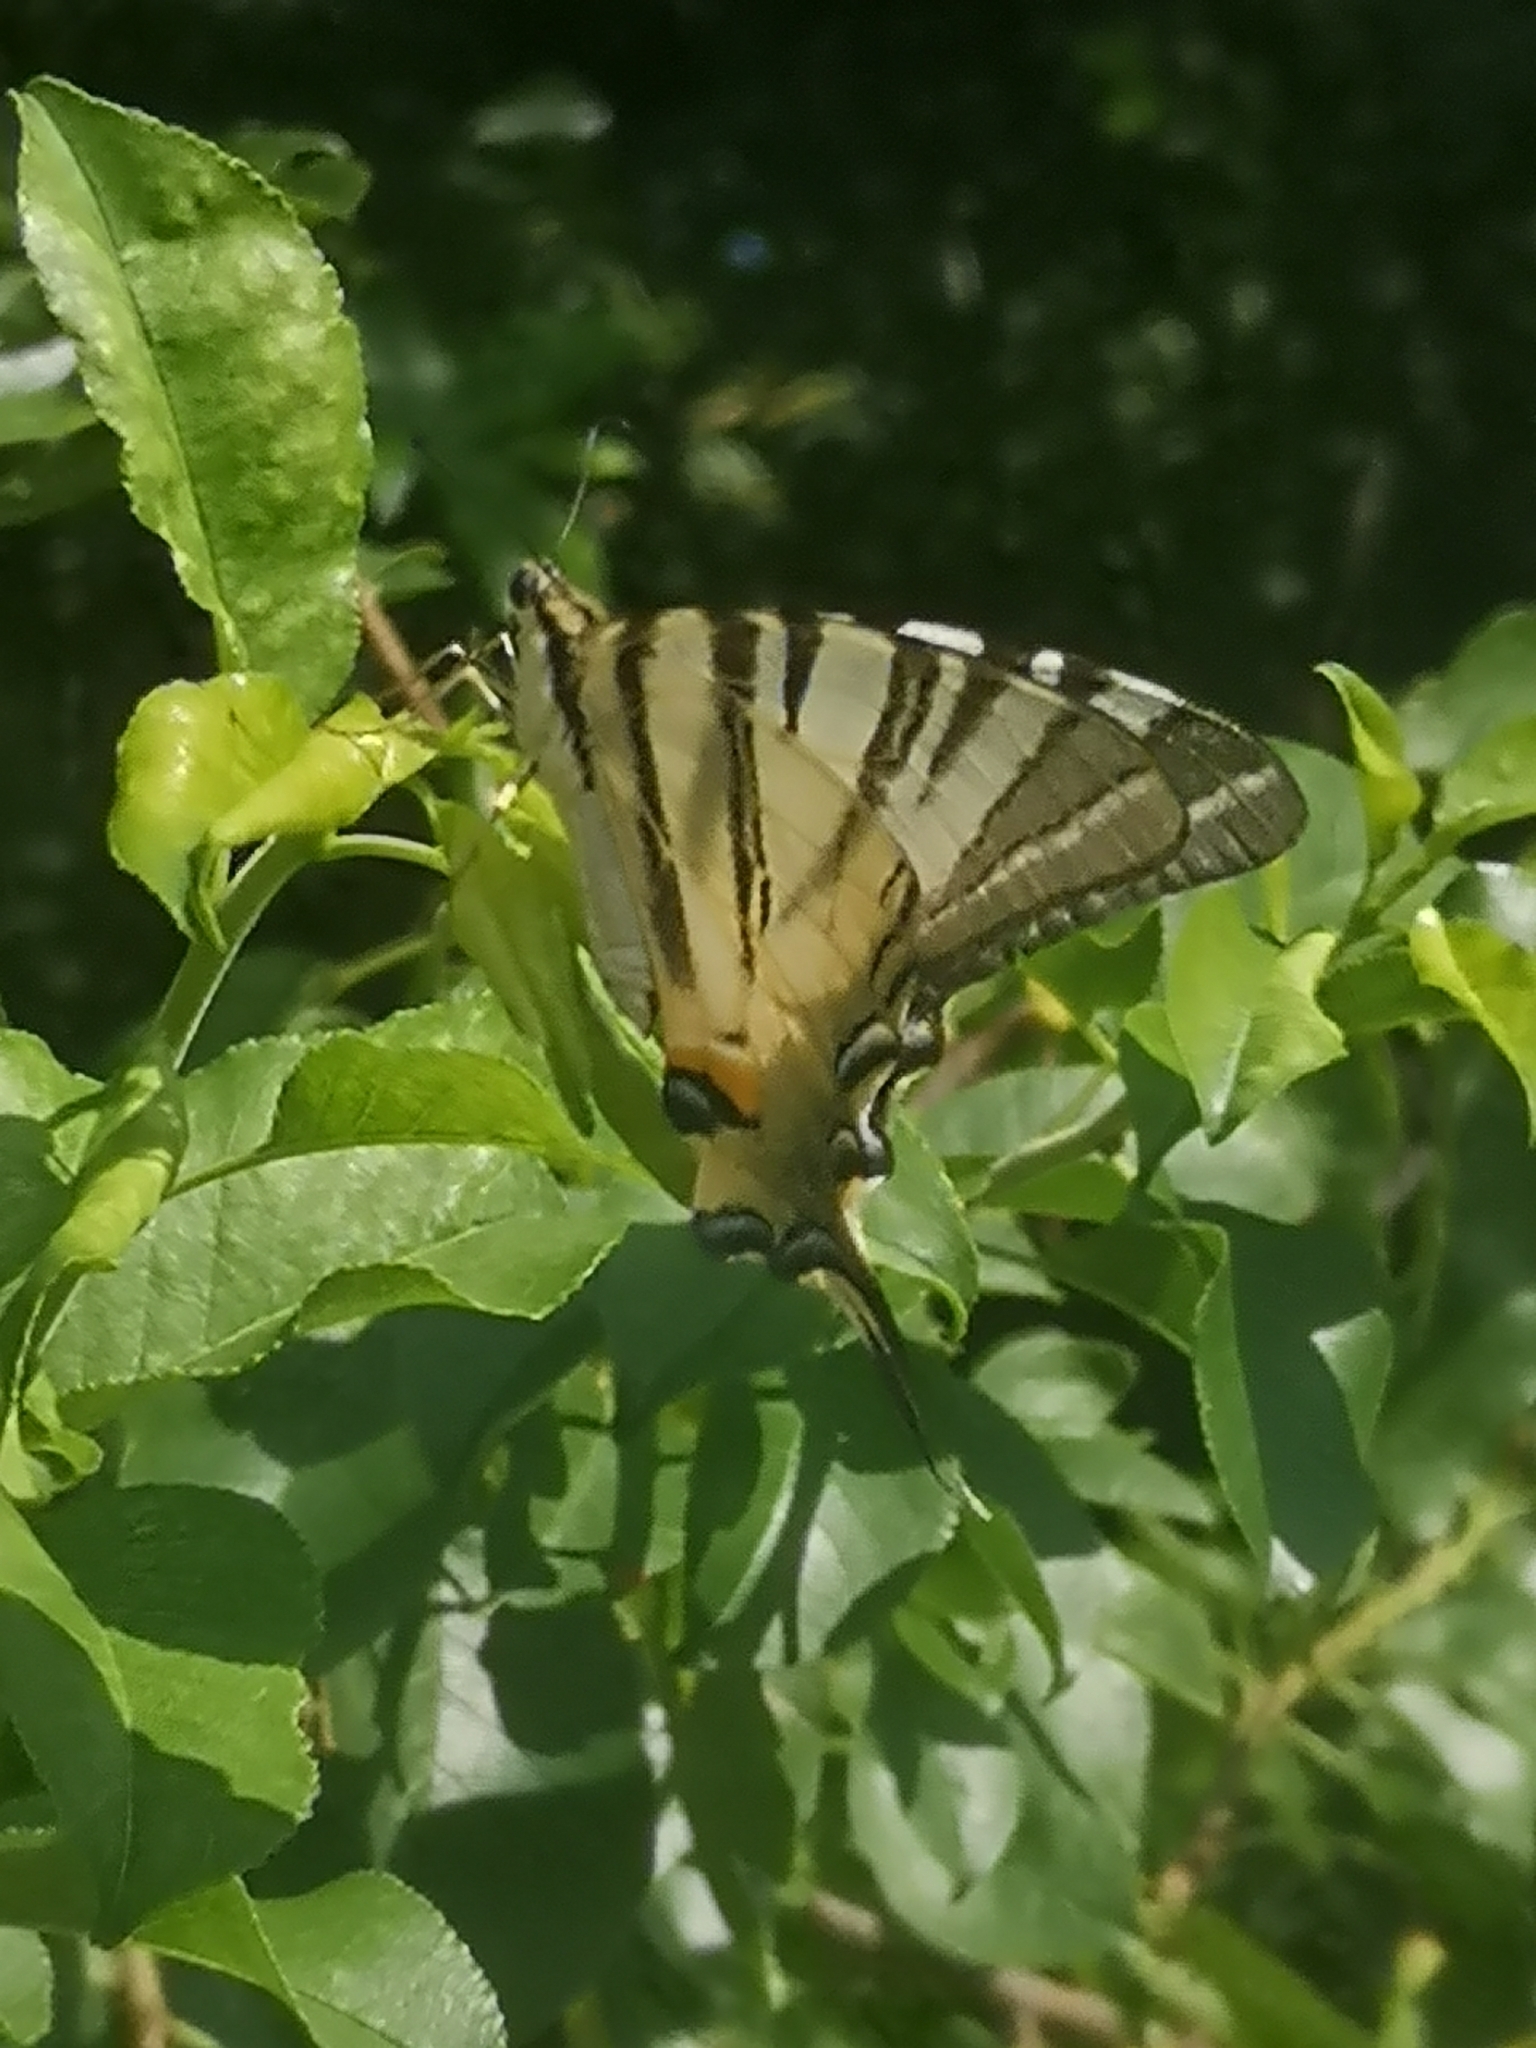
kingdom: Animalia
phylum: Arthropoda
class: Insecta
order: Lepidoptera
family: Papilionidae
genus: Iphiclides
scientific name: Iphiclides podalirius
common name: Scarce swallowtail
